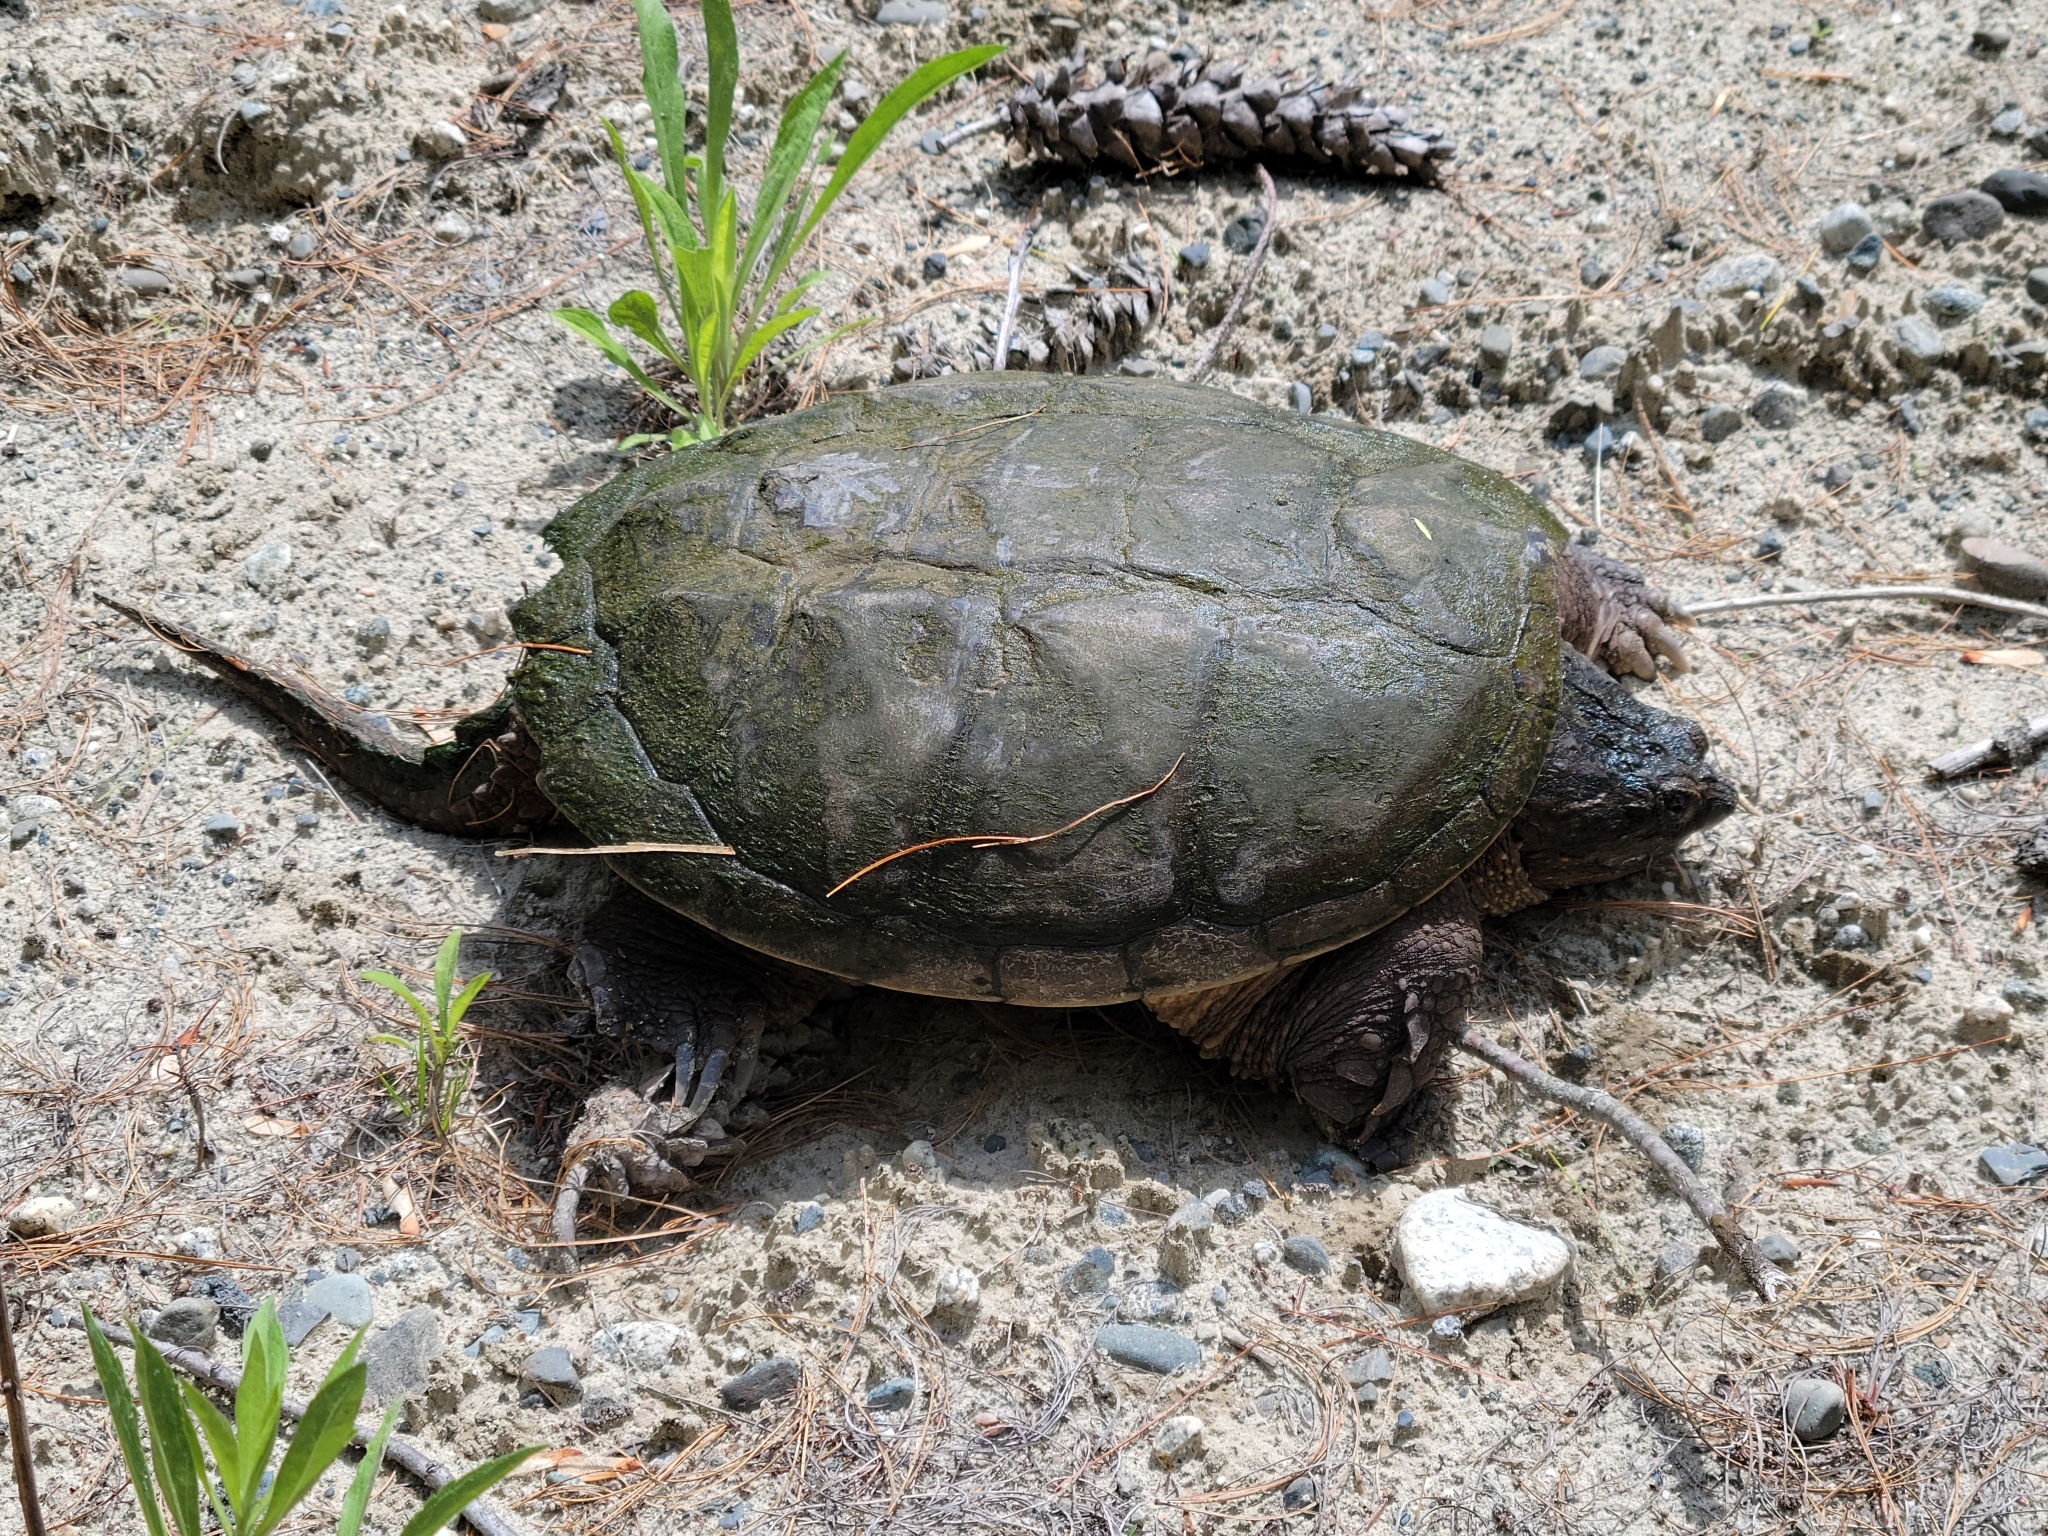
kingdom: Animalia
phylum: Chordata
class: Testudines
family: Chelydridae
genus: Chelydra
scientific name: Chelydra serpentina
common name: Common snapping turtle
